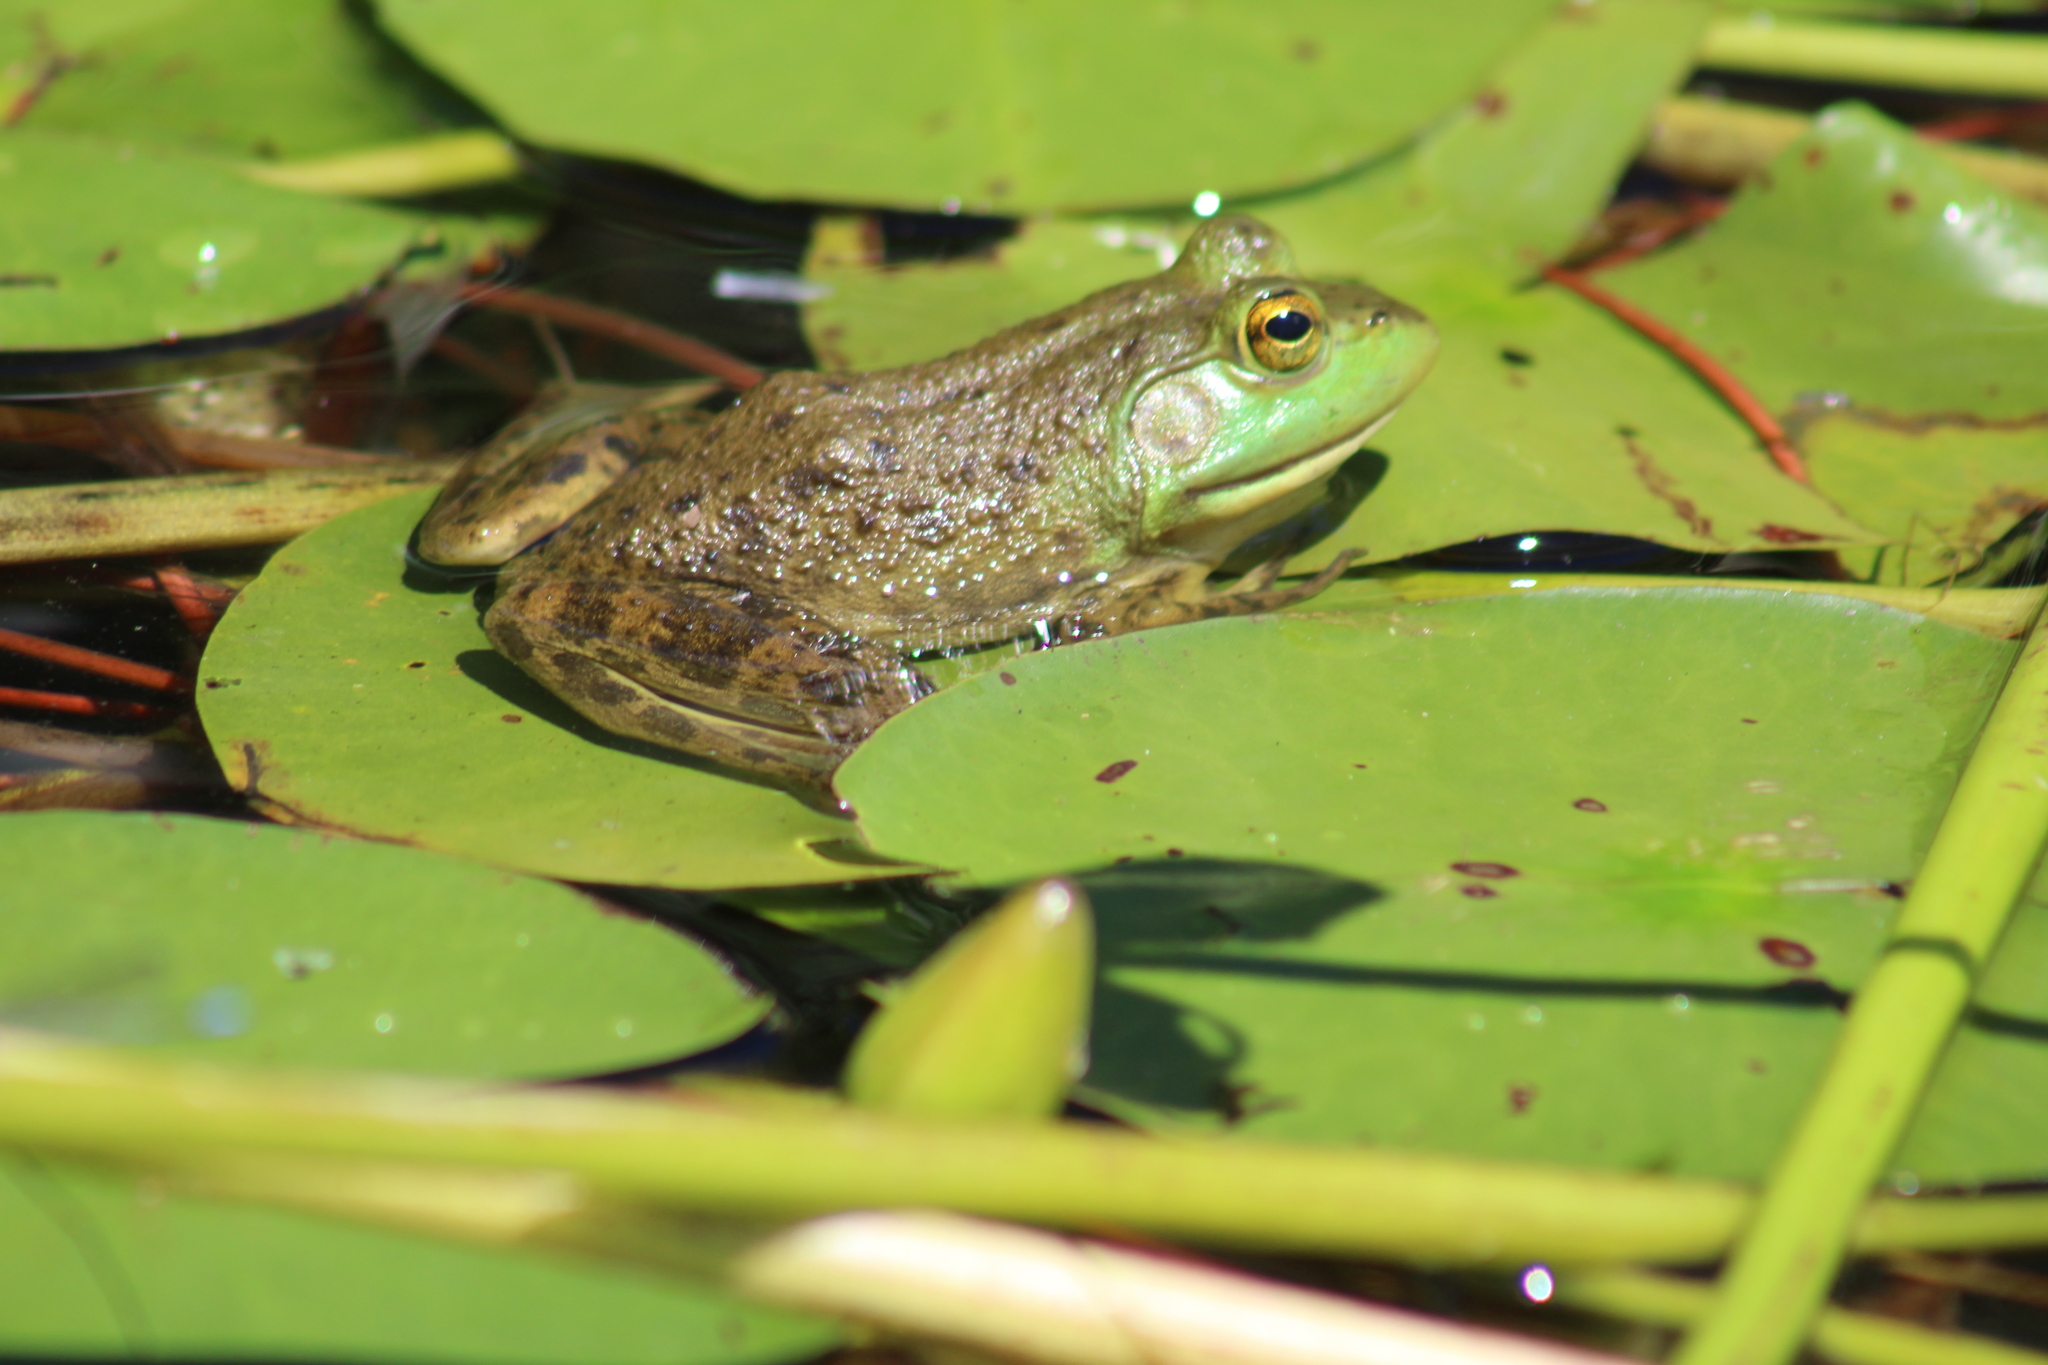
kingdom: Animalia
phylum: Chordata
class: Amphibia
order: Anura
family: Ranidae
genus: Lithobates
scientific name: Lithobates catesbeianus
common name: American bullfrog
